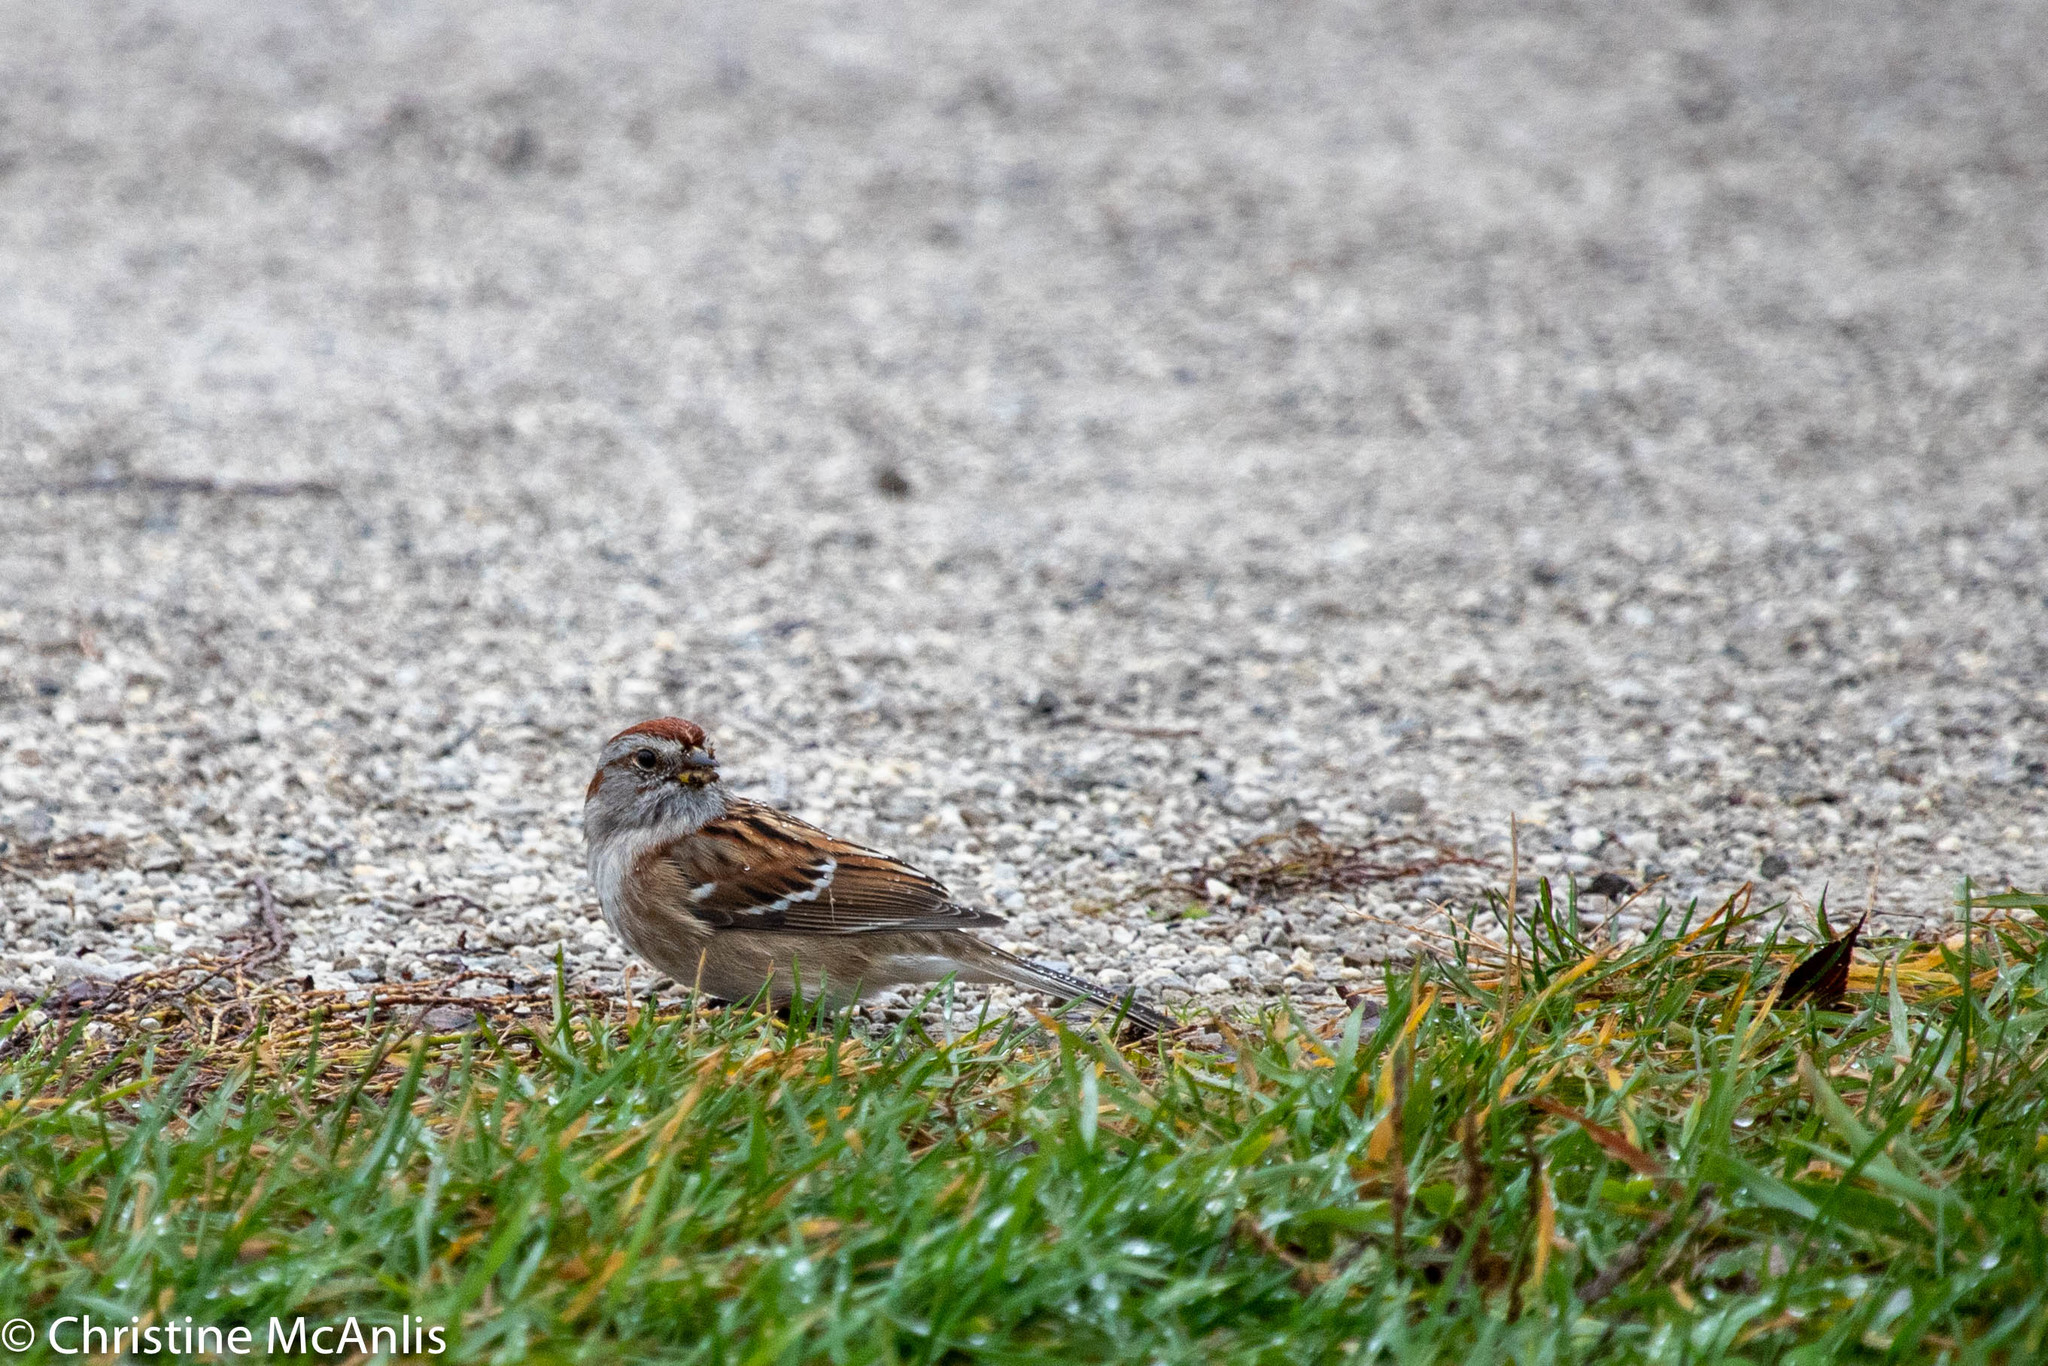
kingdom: Animalia
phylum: Chordata
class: Aves
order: Passeriformes
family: Passerellidae
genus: Spizelloides
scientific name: Spizelloides arborea
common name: American tree sparrow
